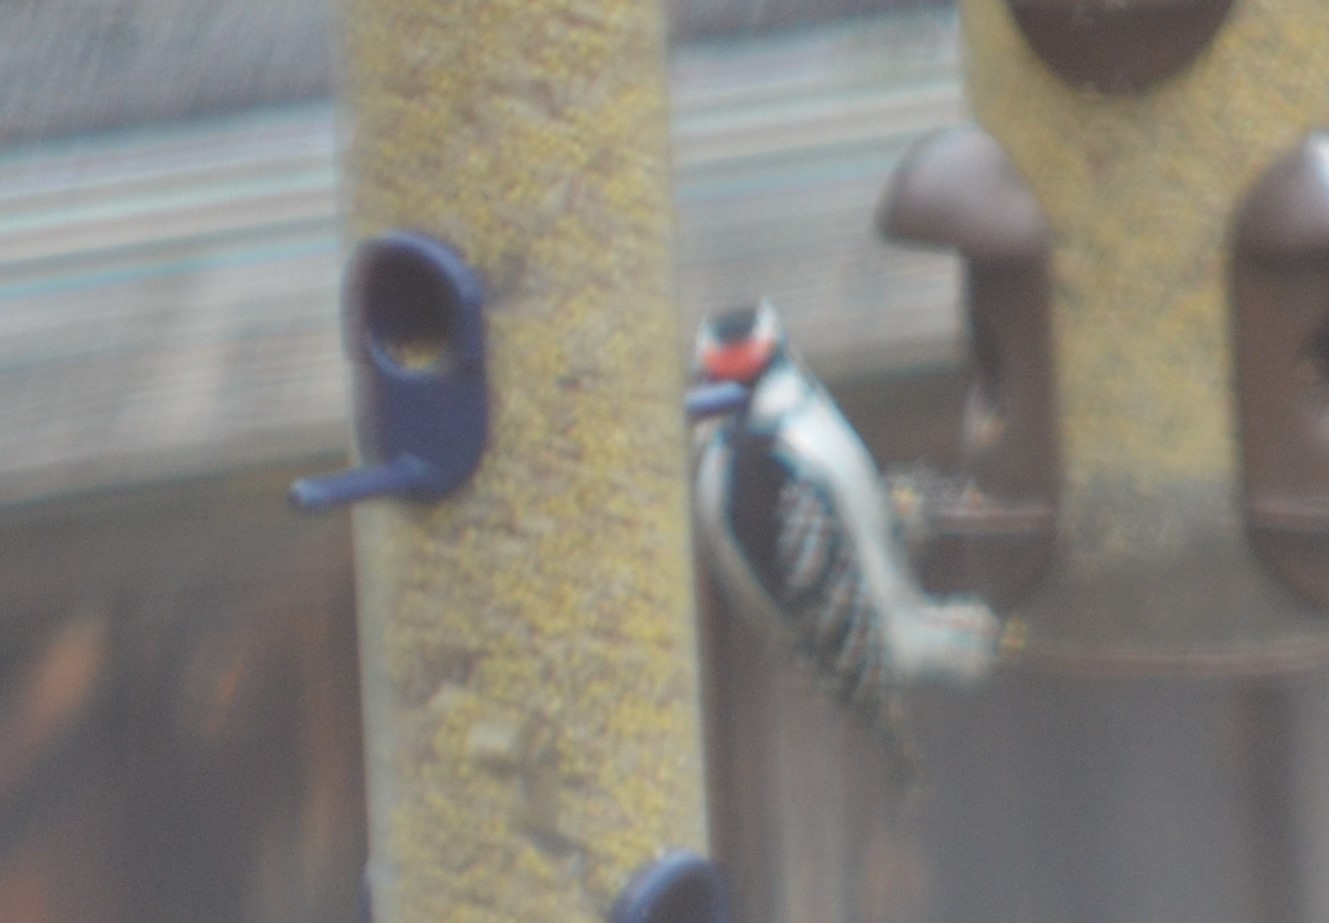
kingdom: Animalia
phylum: Chordata
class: Aves
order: Piciformes
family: Picidae
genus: Dryobates
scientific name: Dryobates
